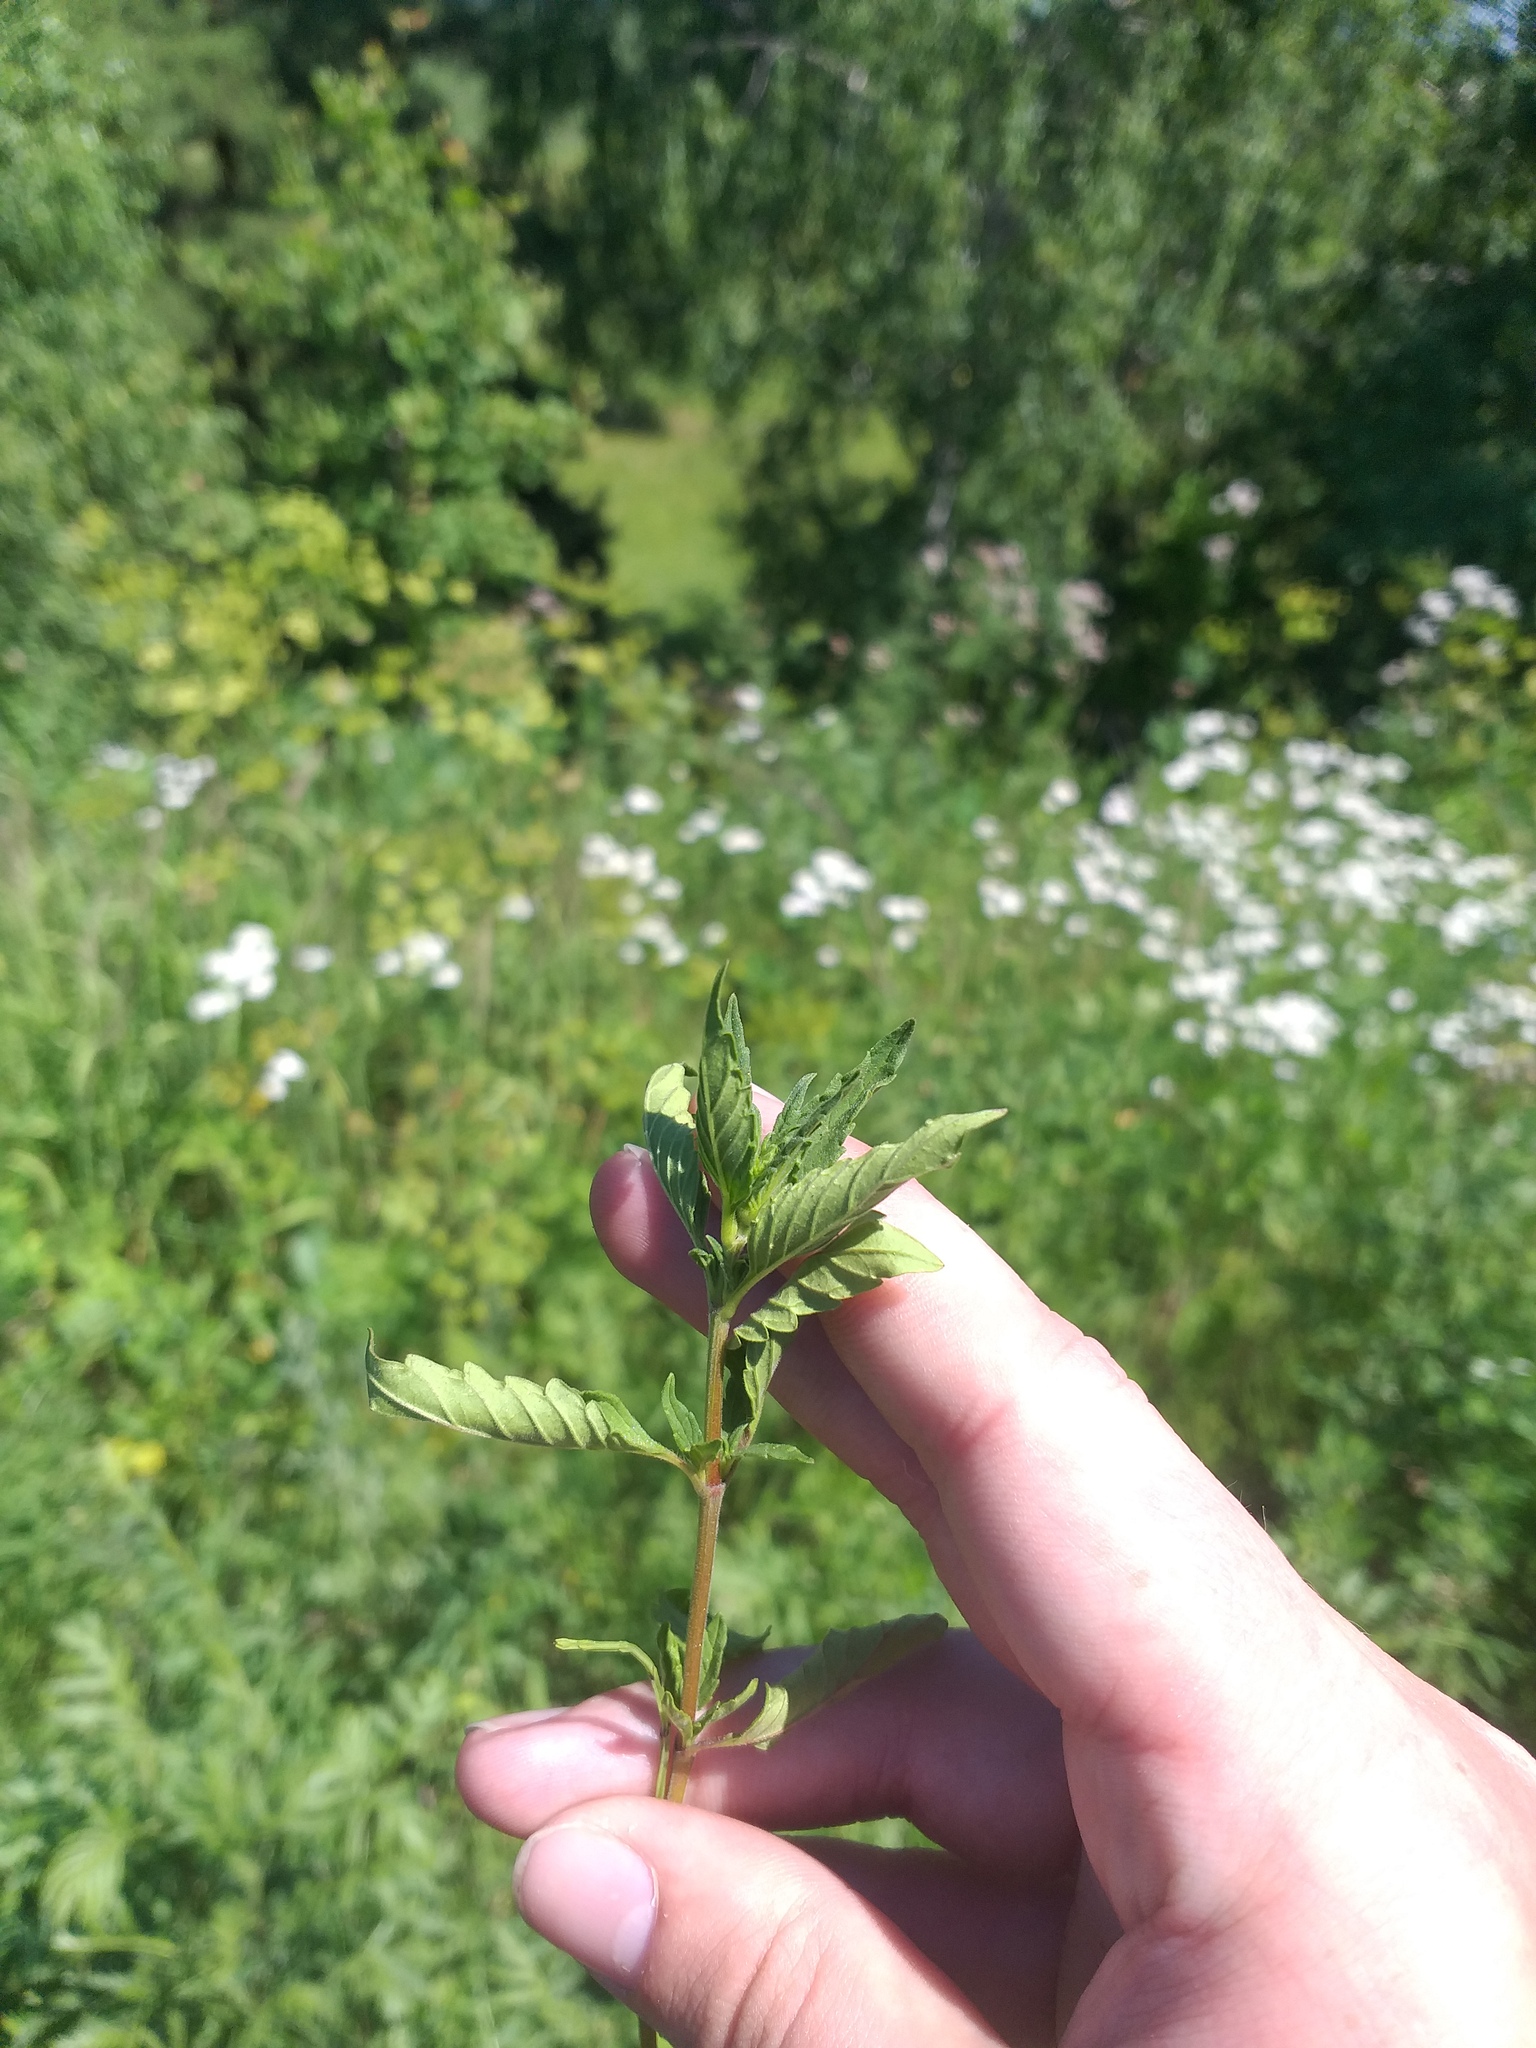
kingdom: Plantae
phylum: Tracheophyta
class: Magnoliopsida
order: Lamiales
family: Lamiaceae
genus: Galeopsis
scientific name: Galeopsis ladanum
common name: Broad-leaved hemp-nettle
